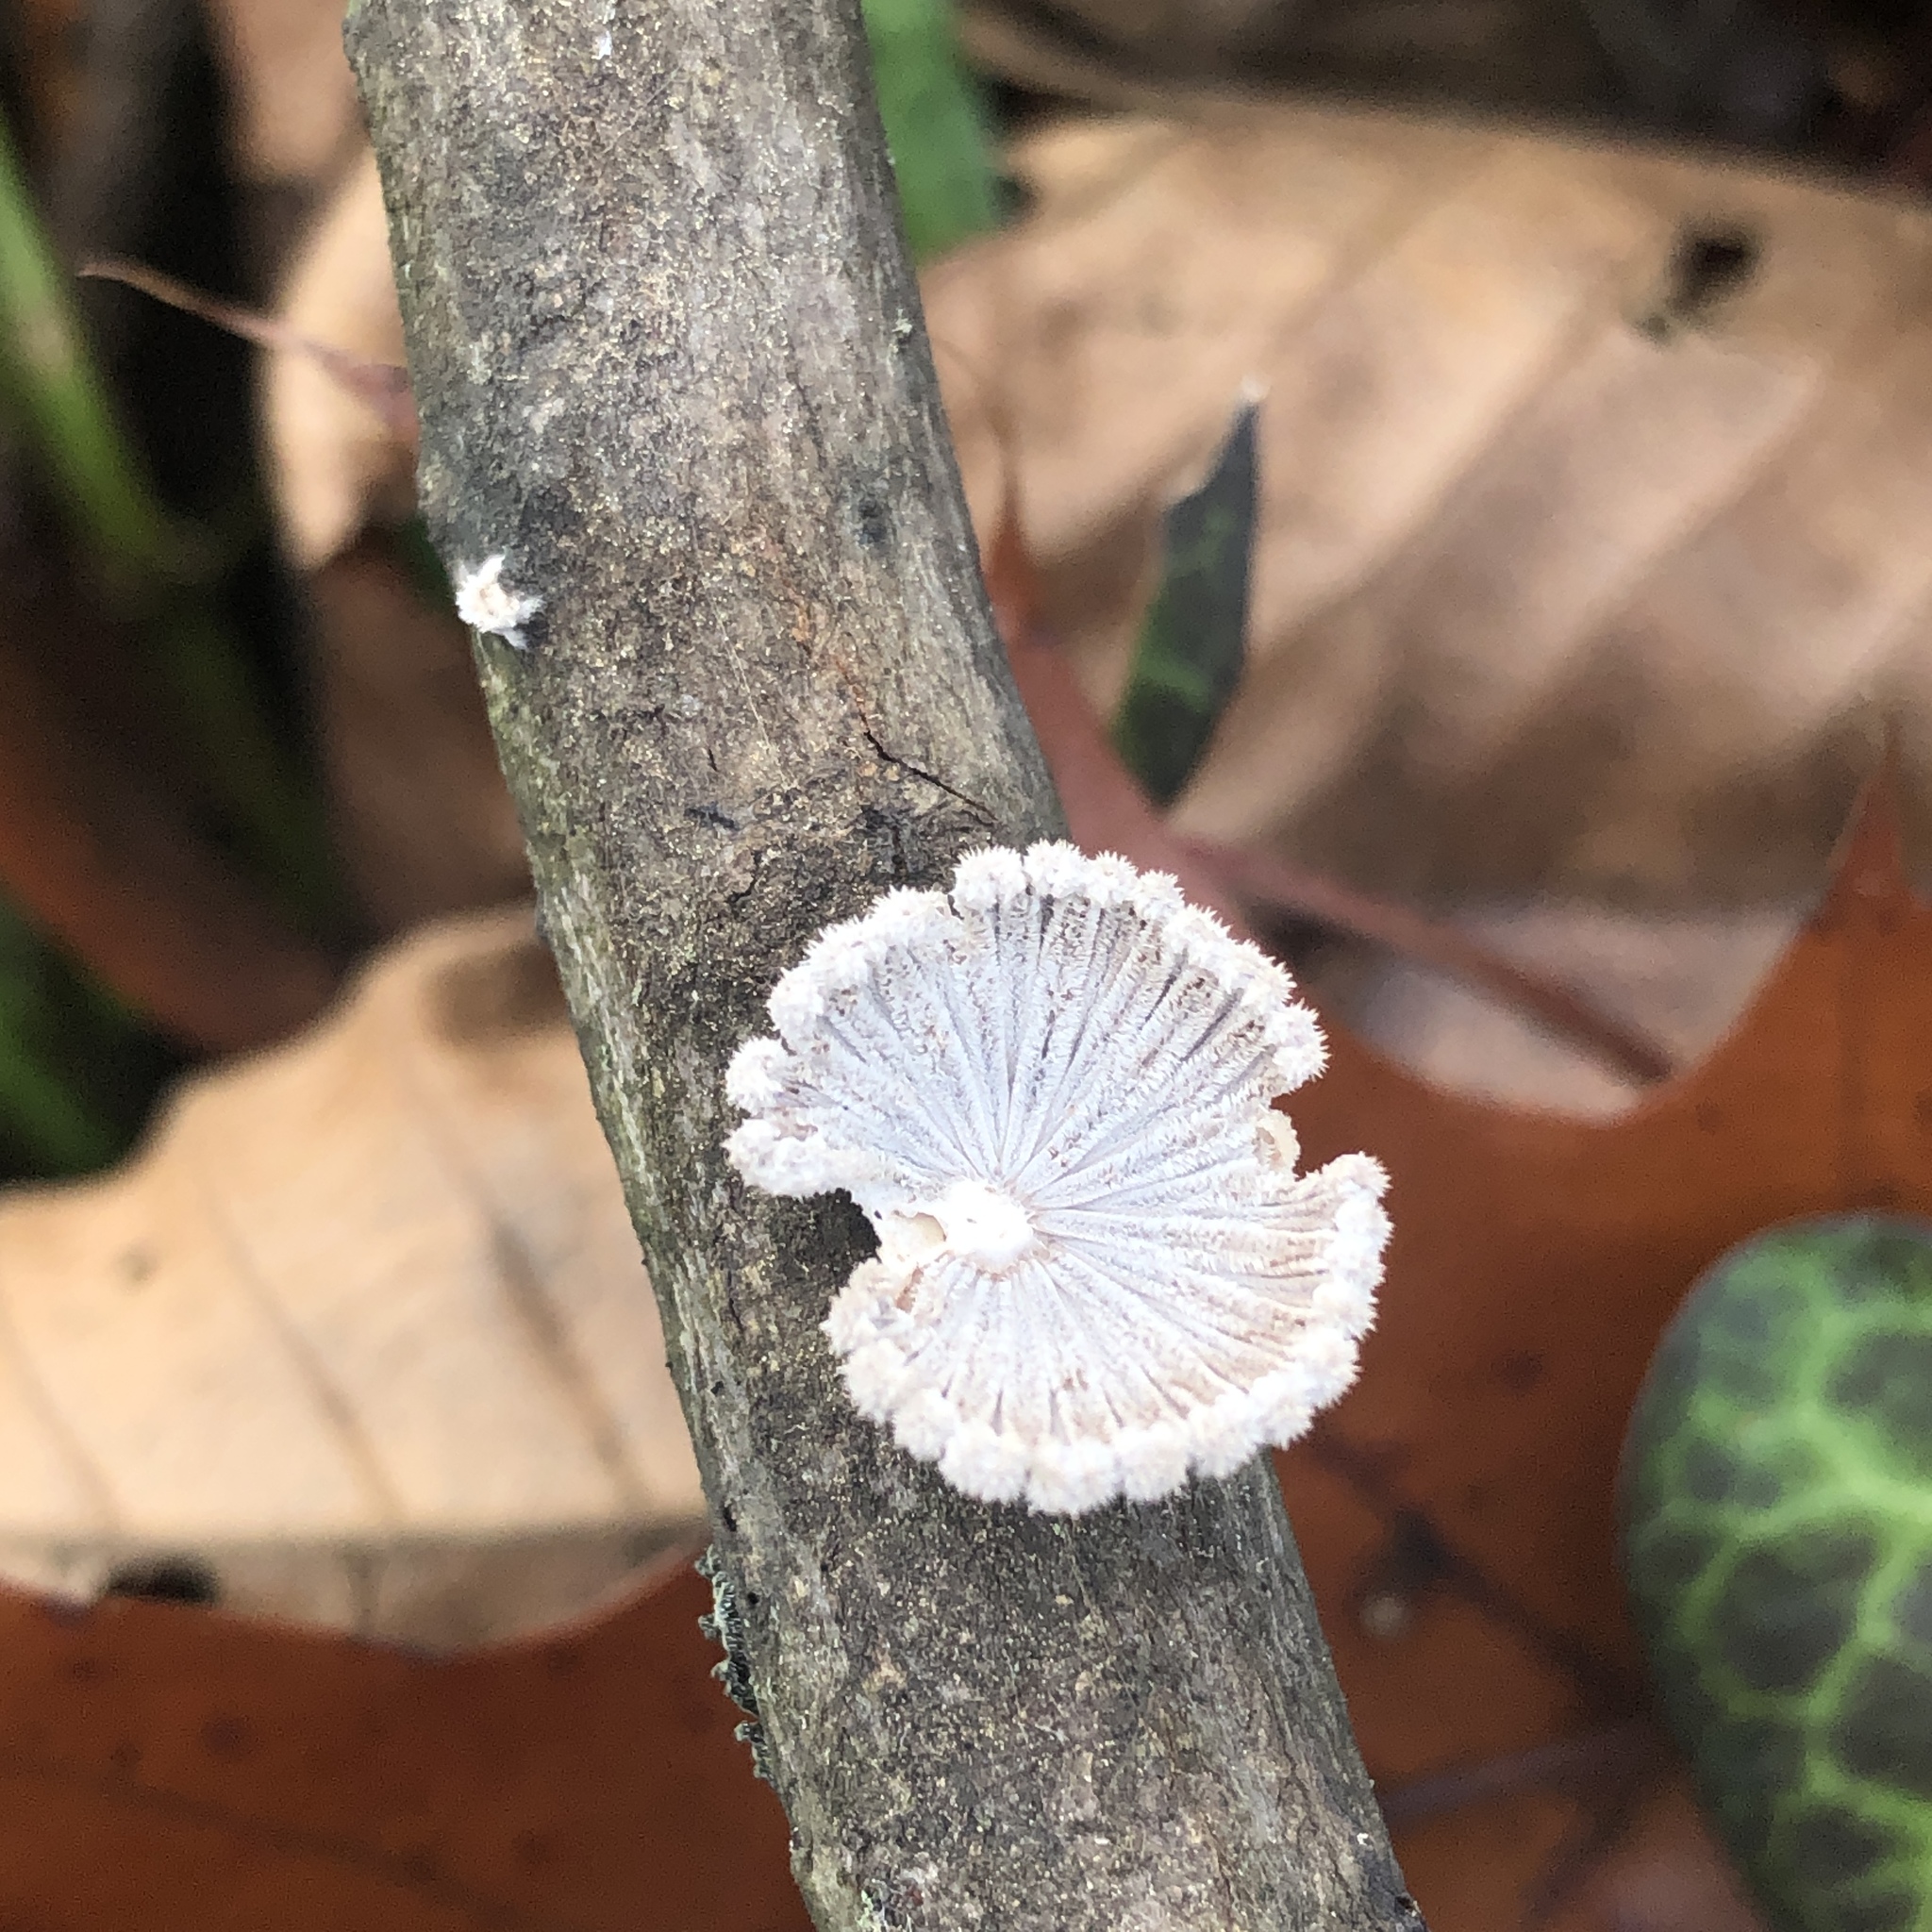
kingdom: Fungi
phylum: Basidiomycota
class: Agaricomycetes
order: Agaricales
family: Schizophyllaceae
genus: Schizophyllum
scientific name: Schizophyllum commune
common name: Common porecrust
